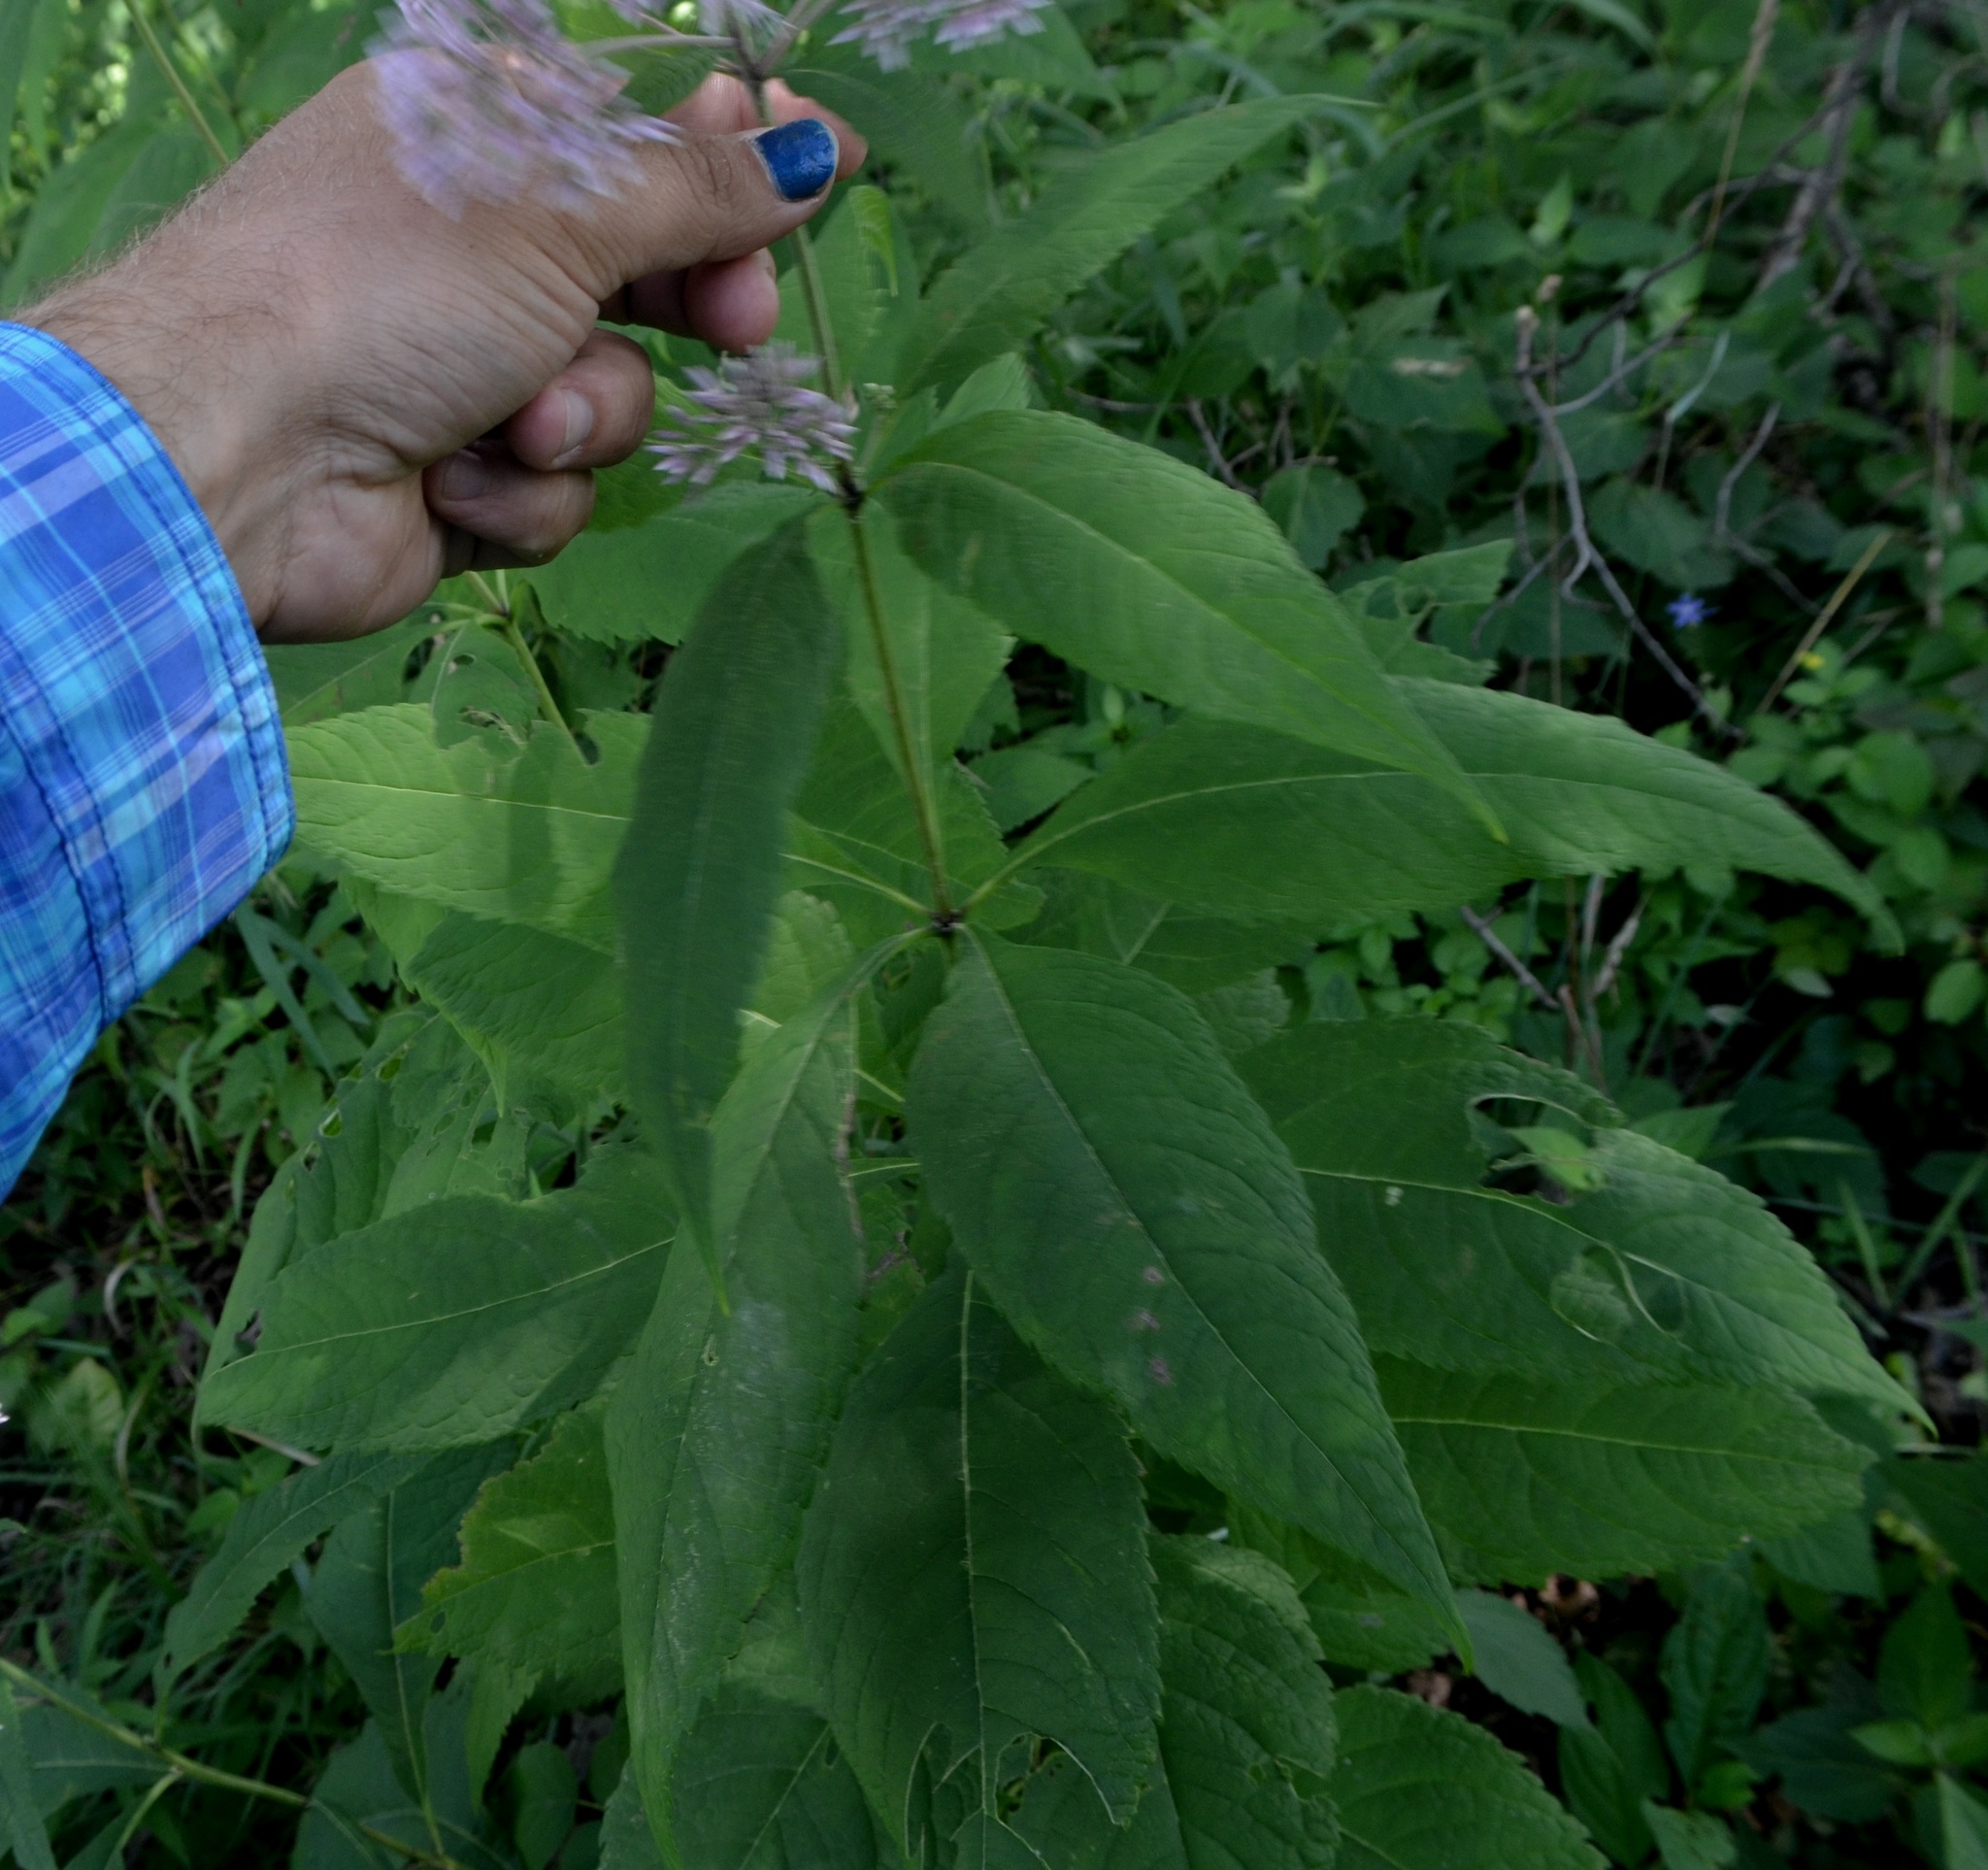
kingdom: Plantae
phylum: Tracheophyta
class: Magnoliopsida
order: Asterales
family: Asteraceae
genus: Eutrochium
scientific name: Eutrochium purpureum
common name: Gravelroot
